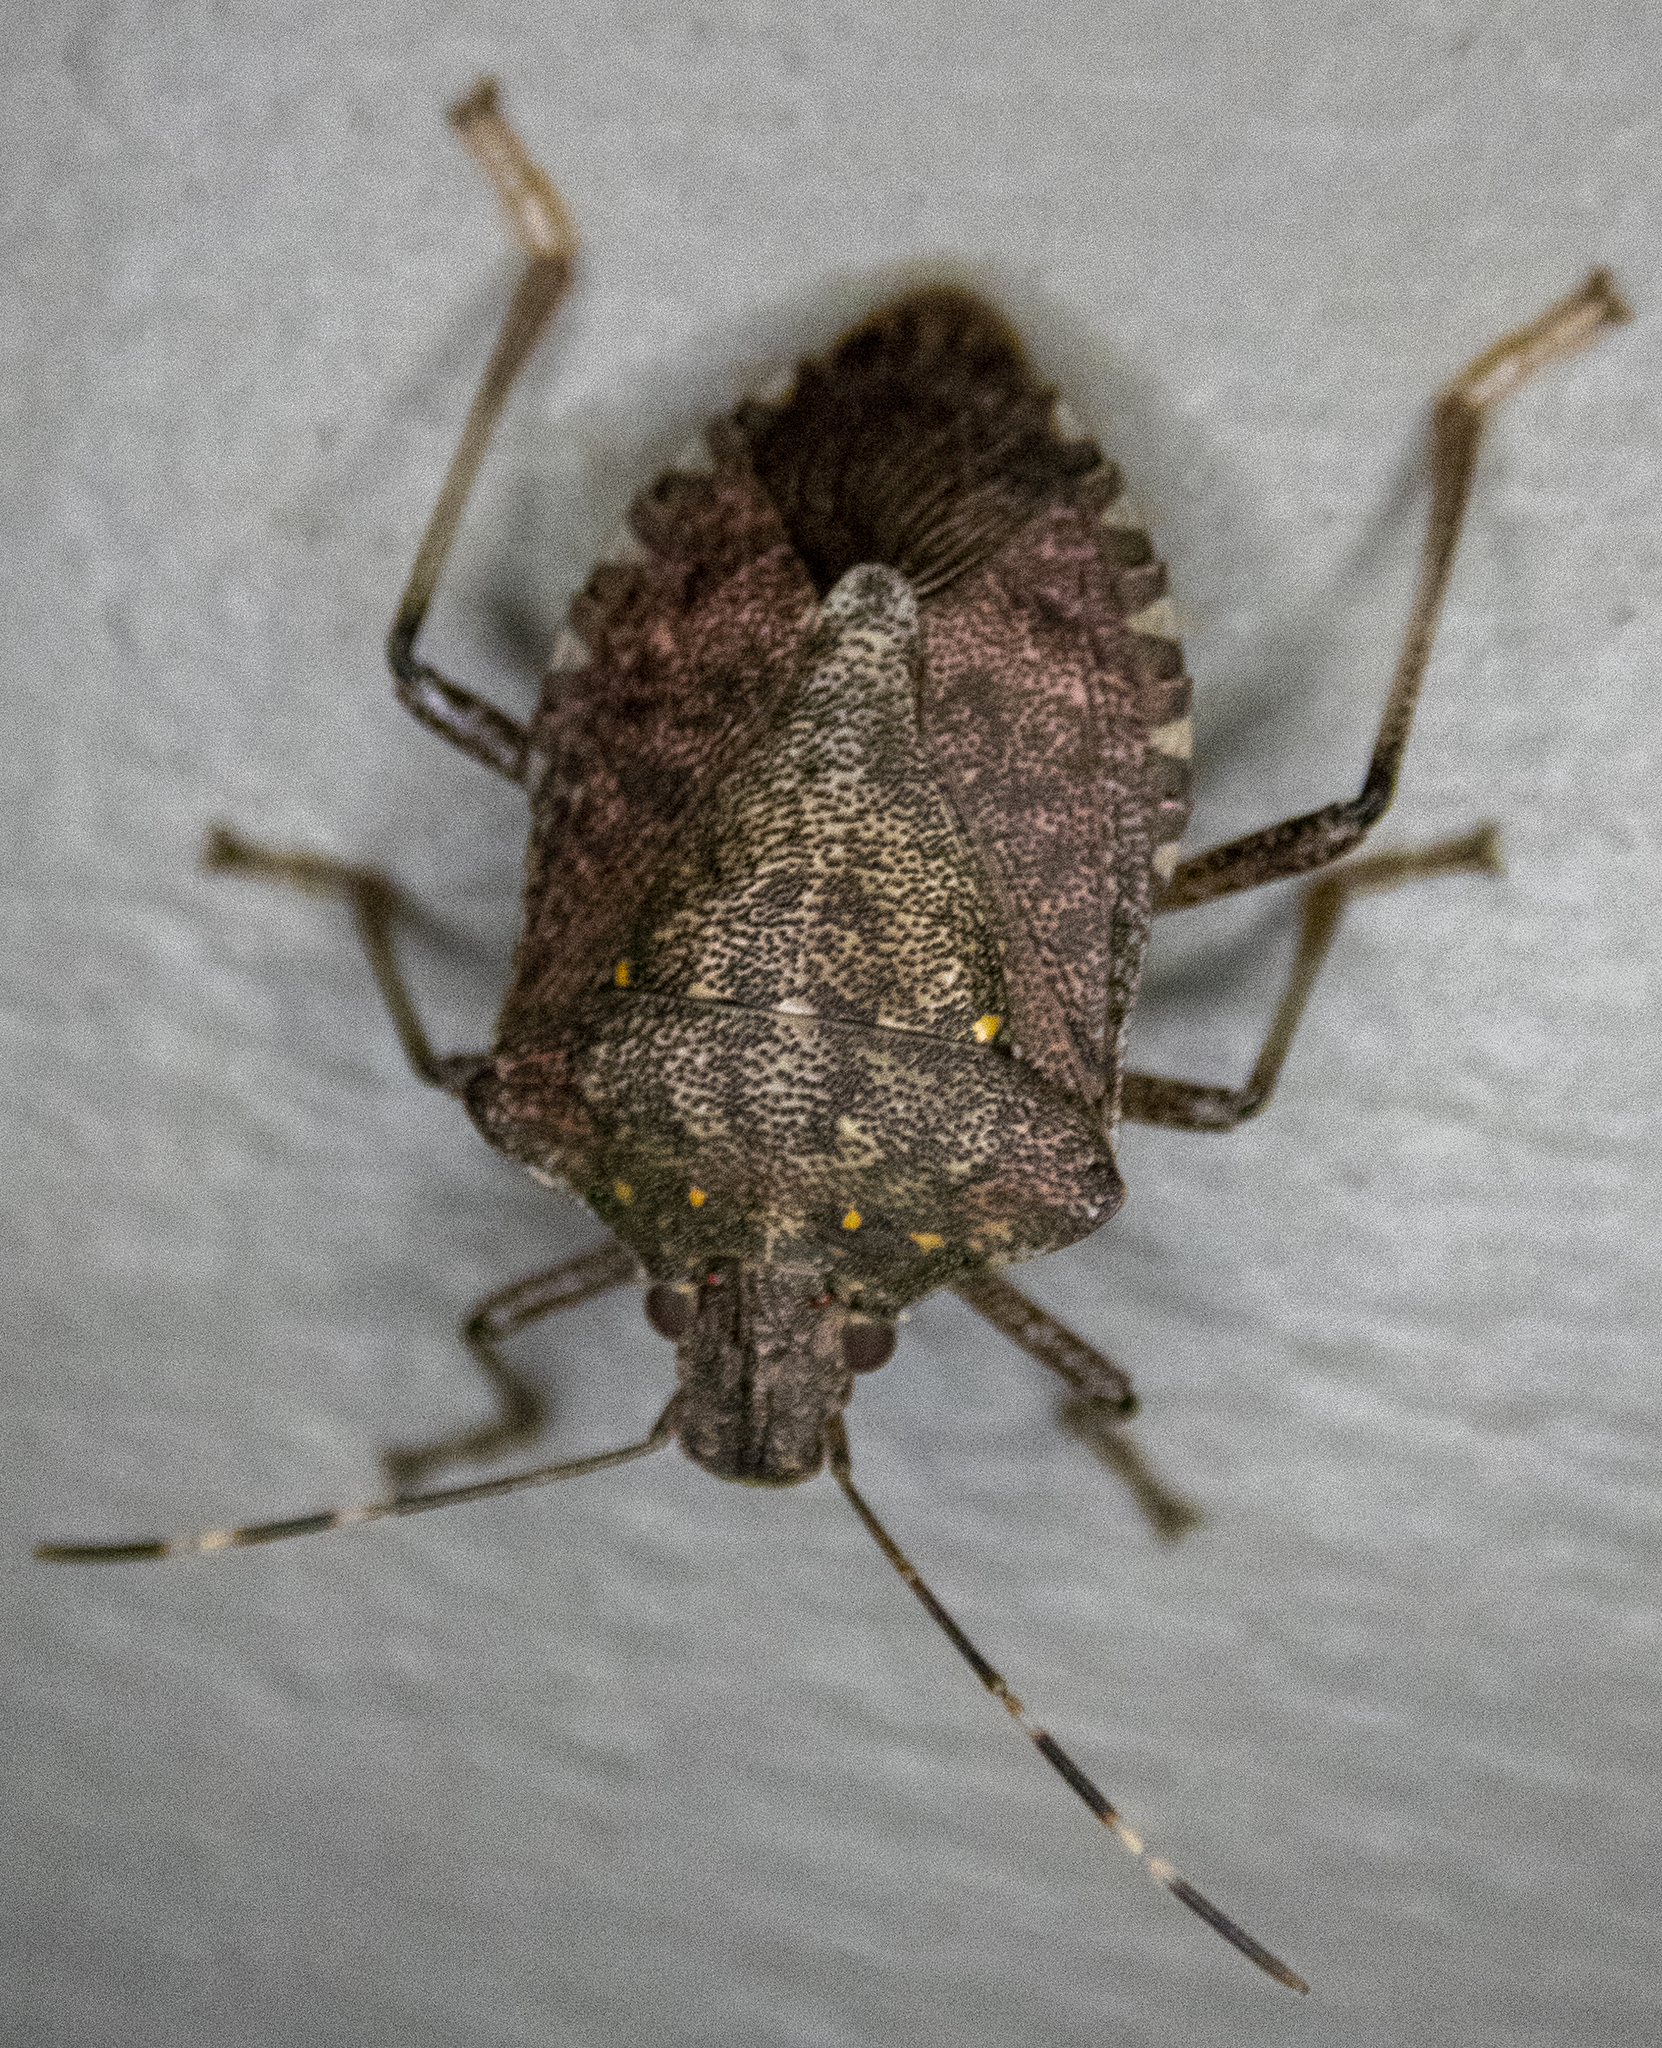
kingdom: Animalia
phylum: Arthropoda
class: Insecta
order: Hemiptera
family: Pentatomidae
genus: Halyomorpha
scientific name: Halyomorpha halys
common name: Brown marmorated stink bug
